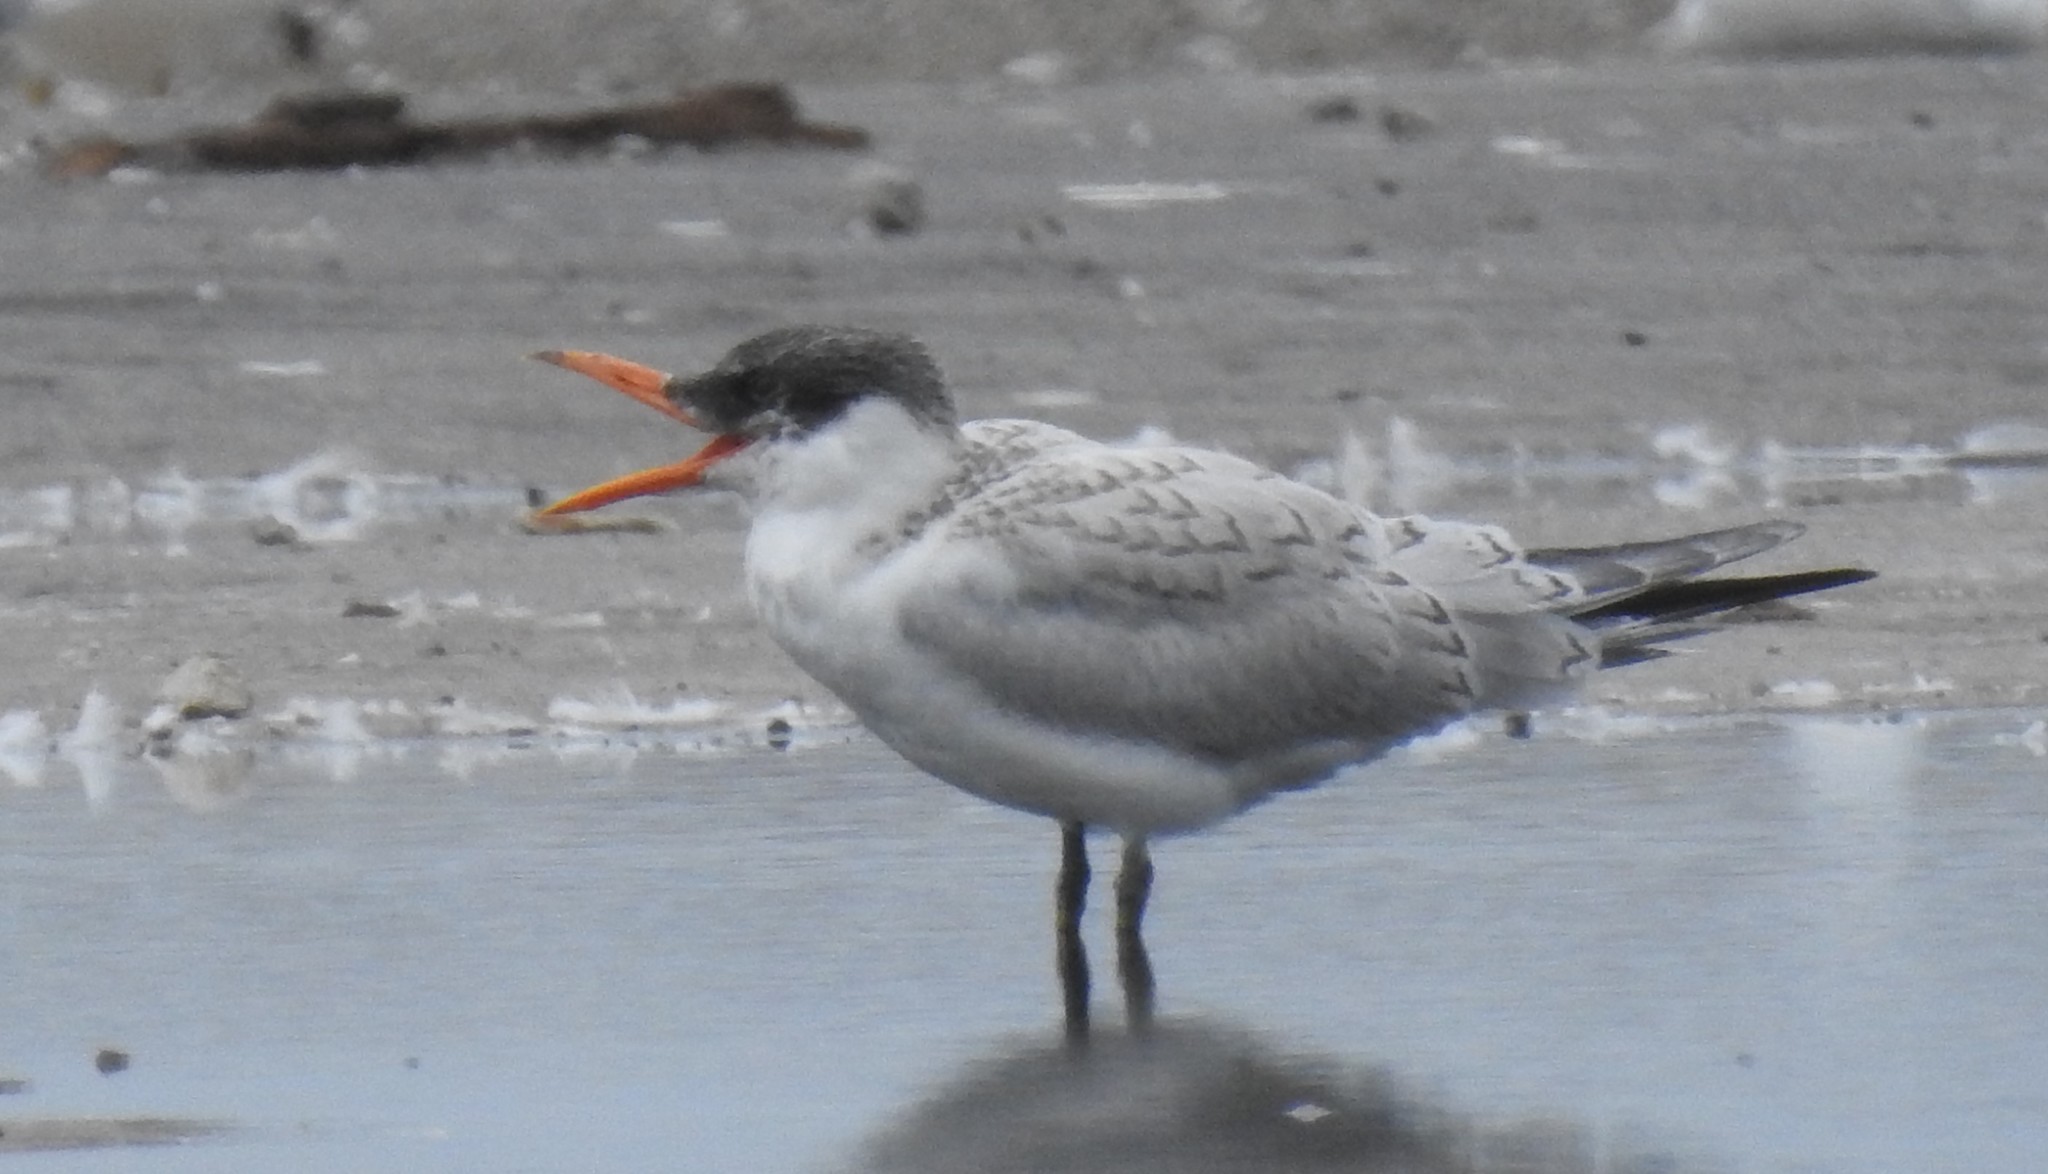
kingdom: Animalia
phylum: Chordata
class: Aves
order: Charadriiformes
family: Laridae
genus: Hydroprogne
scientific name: Hydroprogne caspia
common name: Caspian tern
